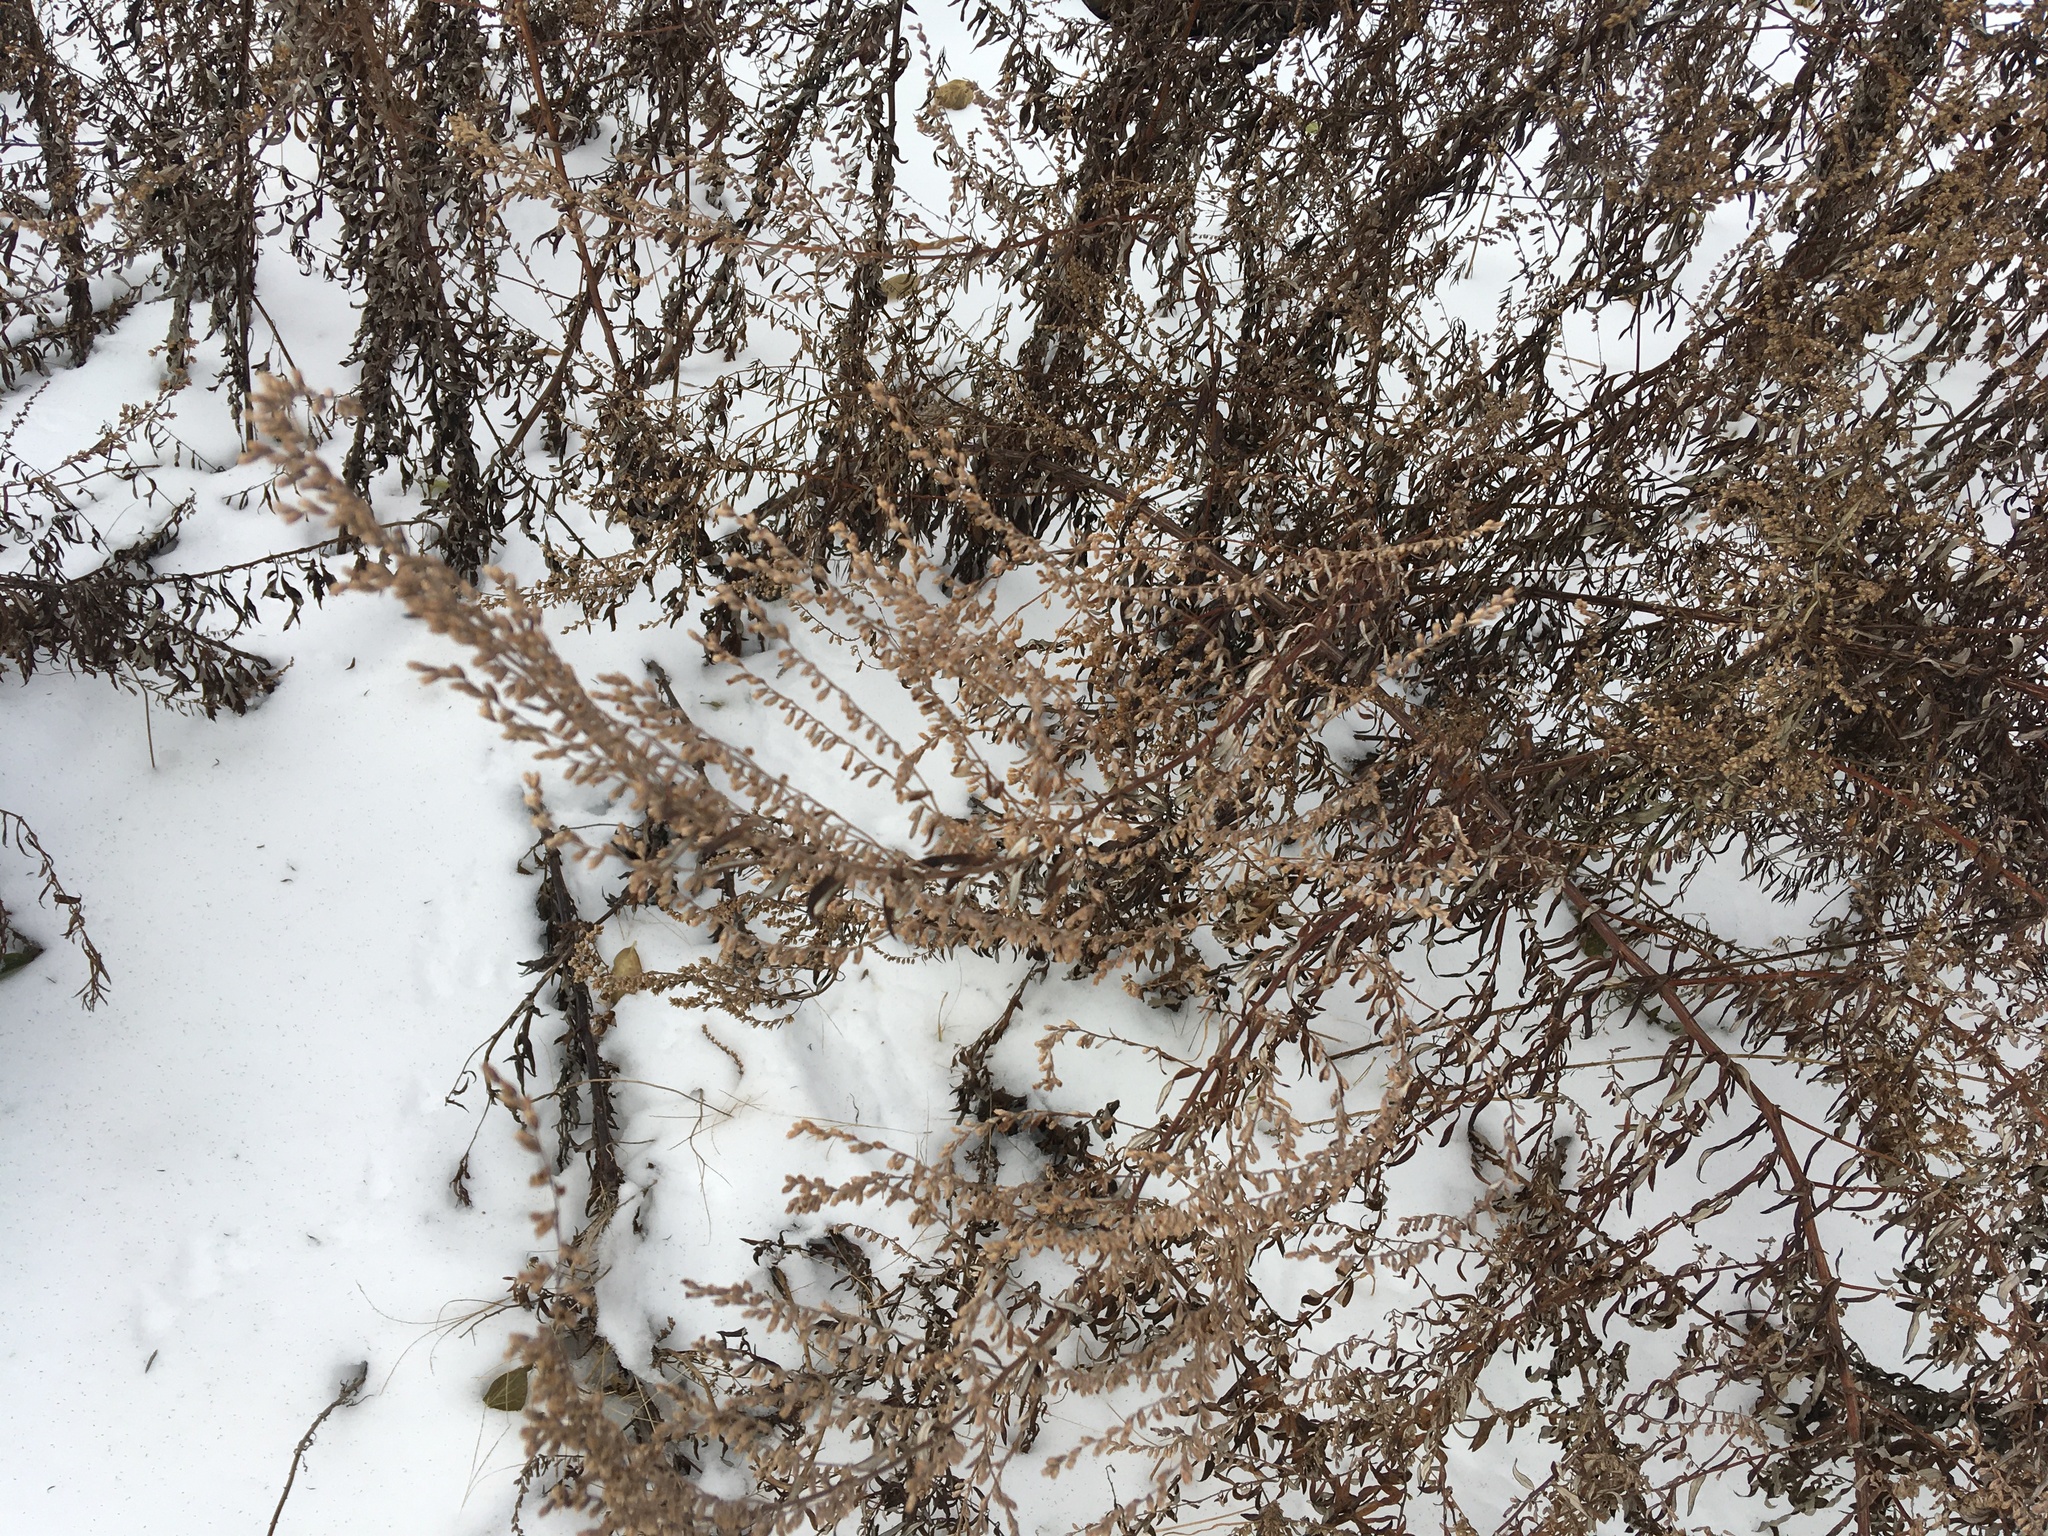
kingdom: Plantae
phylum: Tracheophyta
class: Magnoliopsida
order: Asterales
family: Asteraceae
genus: Artemisia
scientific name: Artemisia vulgaris
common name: Mugwort
